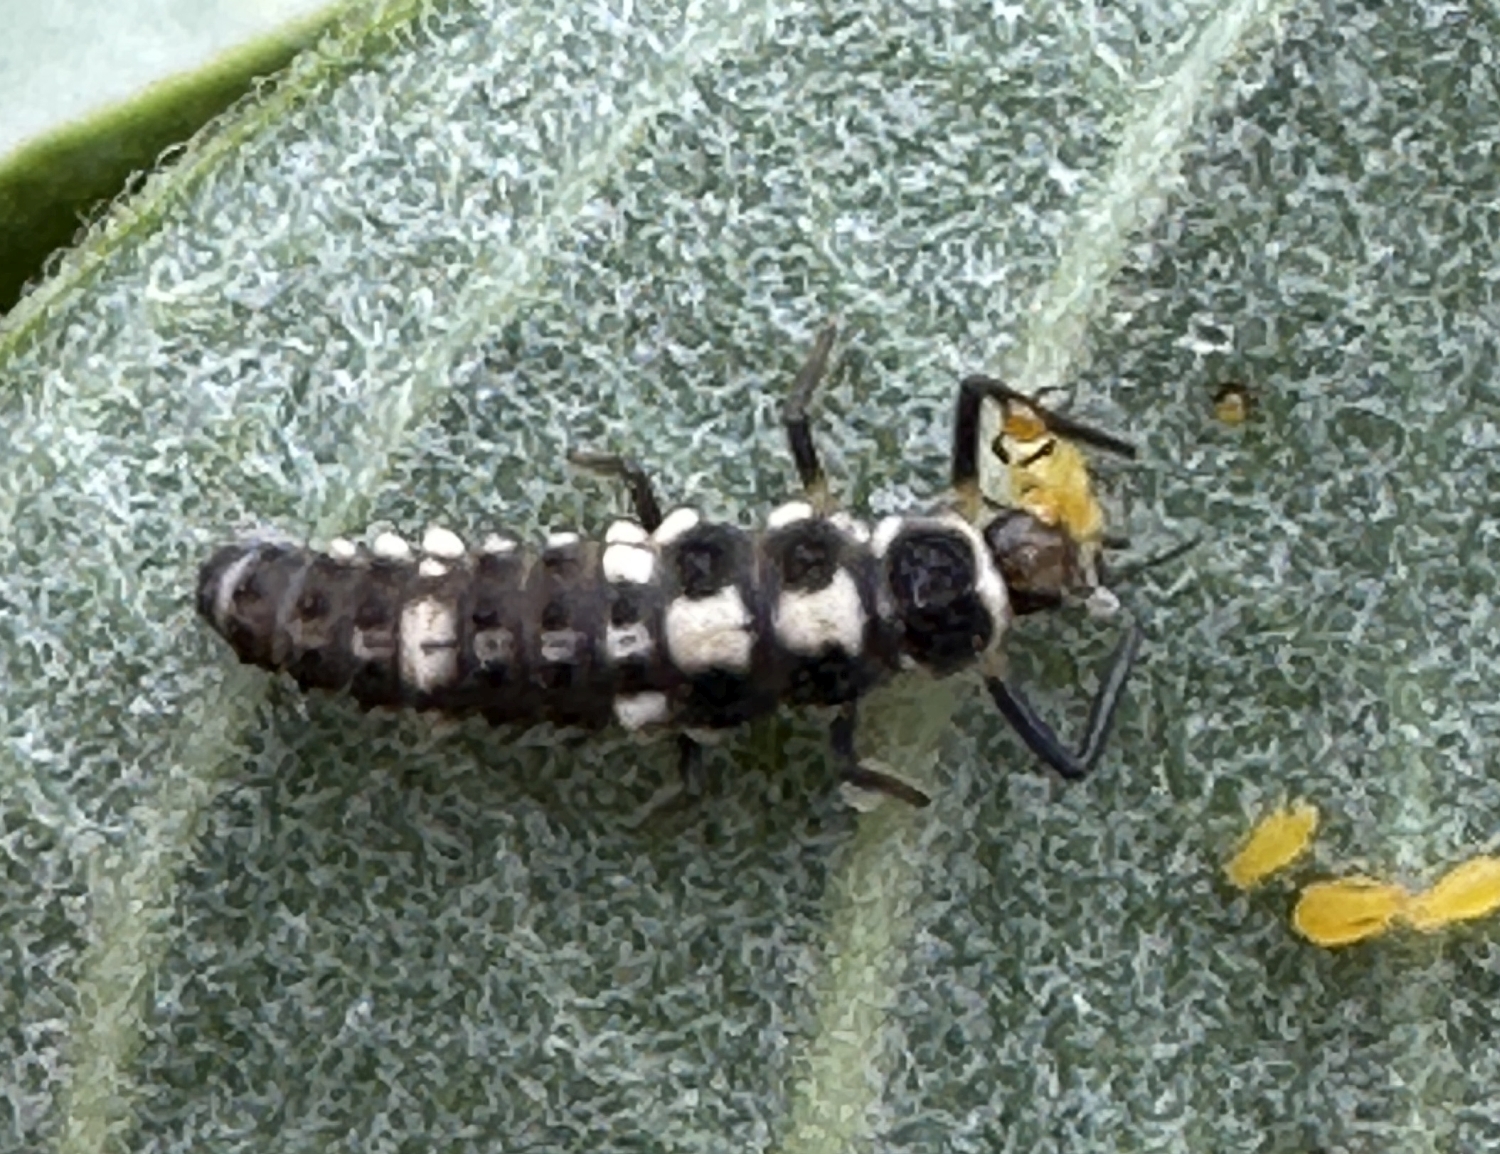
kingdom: Animalia
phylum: Arthropoda
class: Insecta
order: Coleoptera
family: Coccinellidae
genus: Propylaea
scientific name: Propylaea quatuordecimpunctata
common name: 14-spotted ladybird beetle
